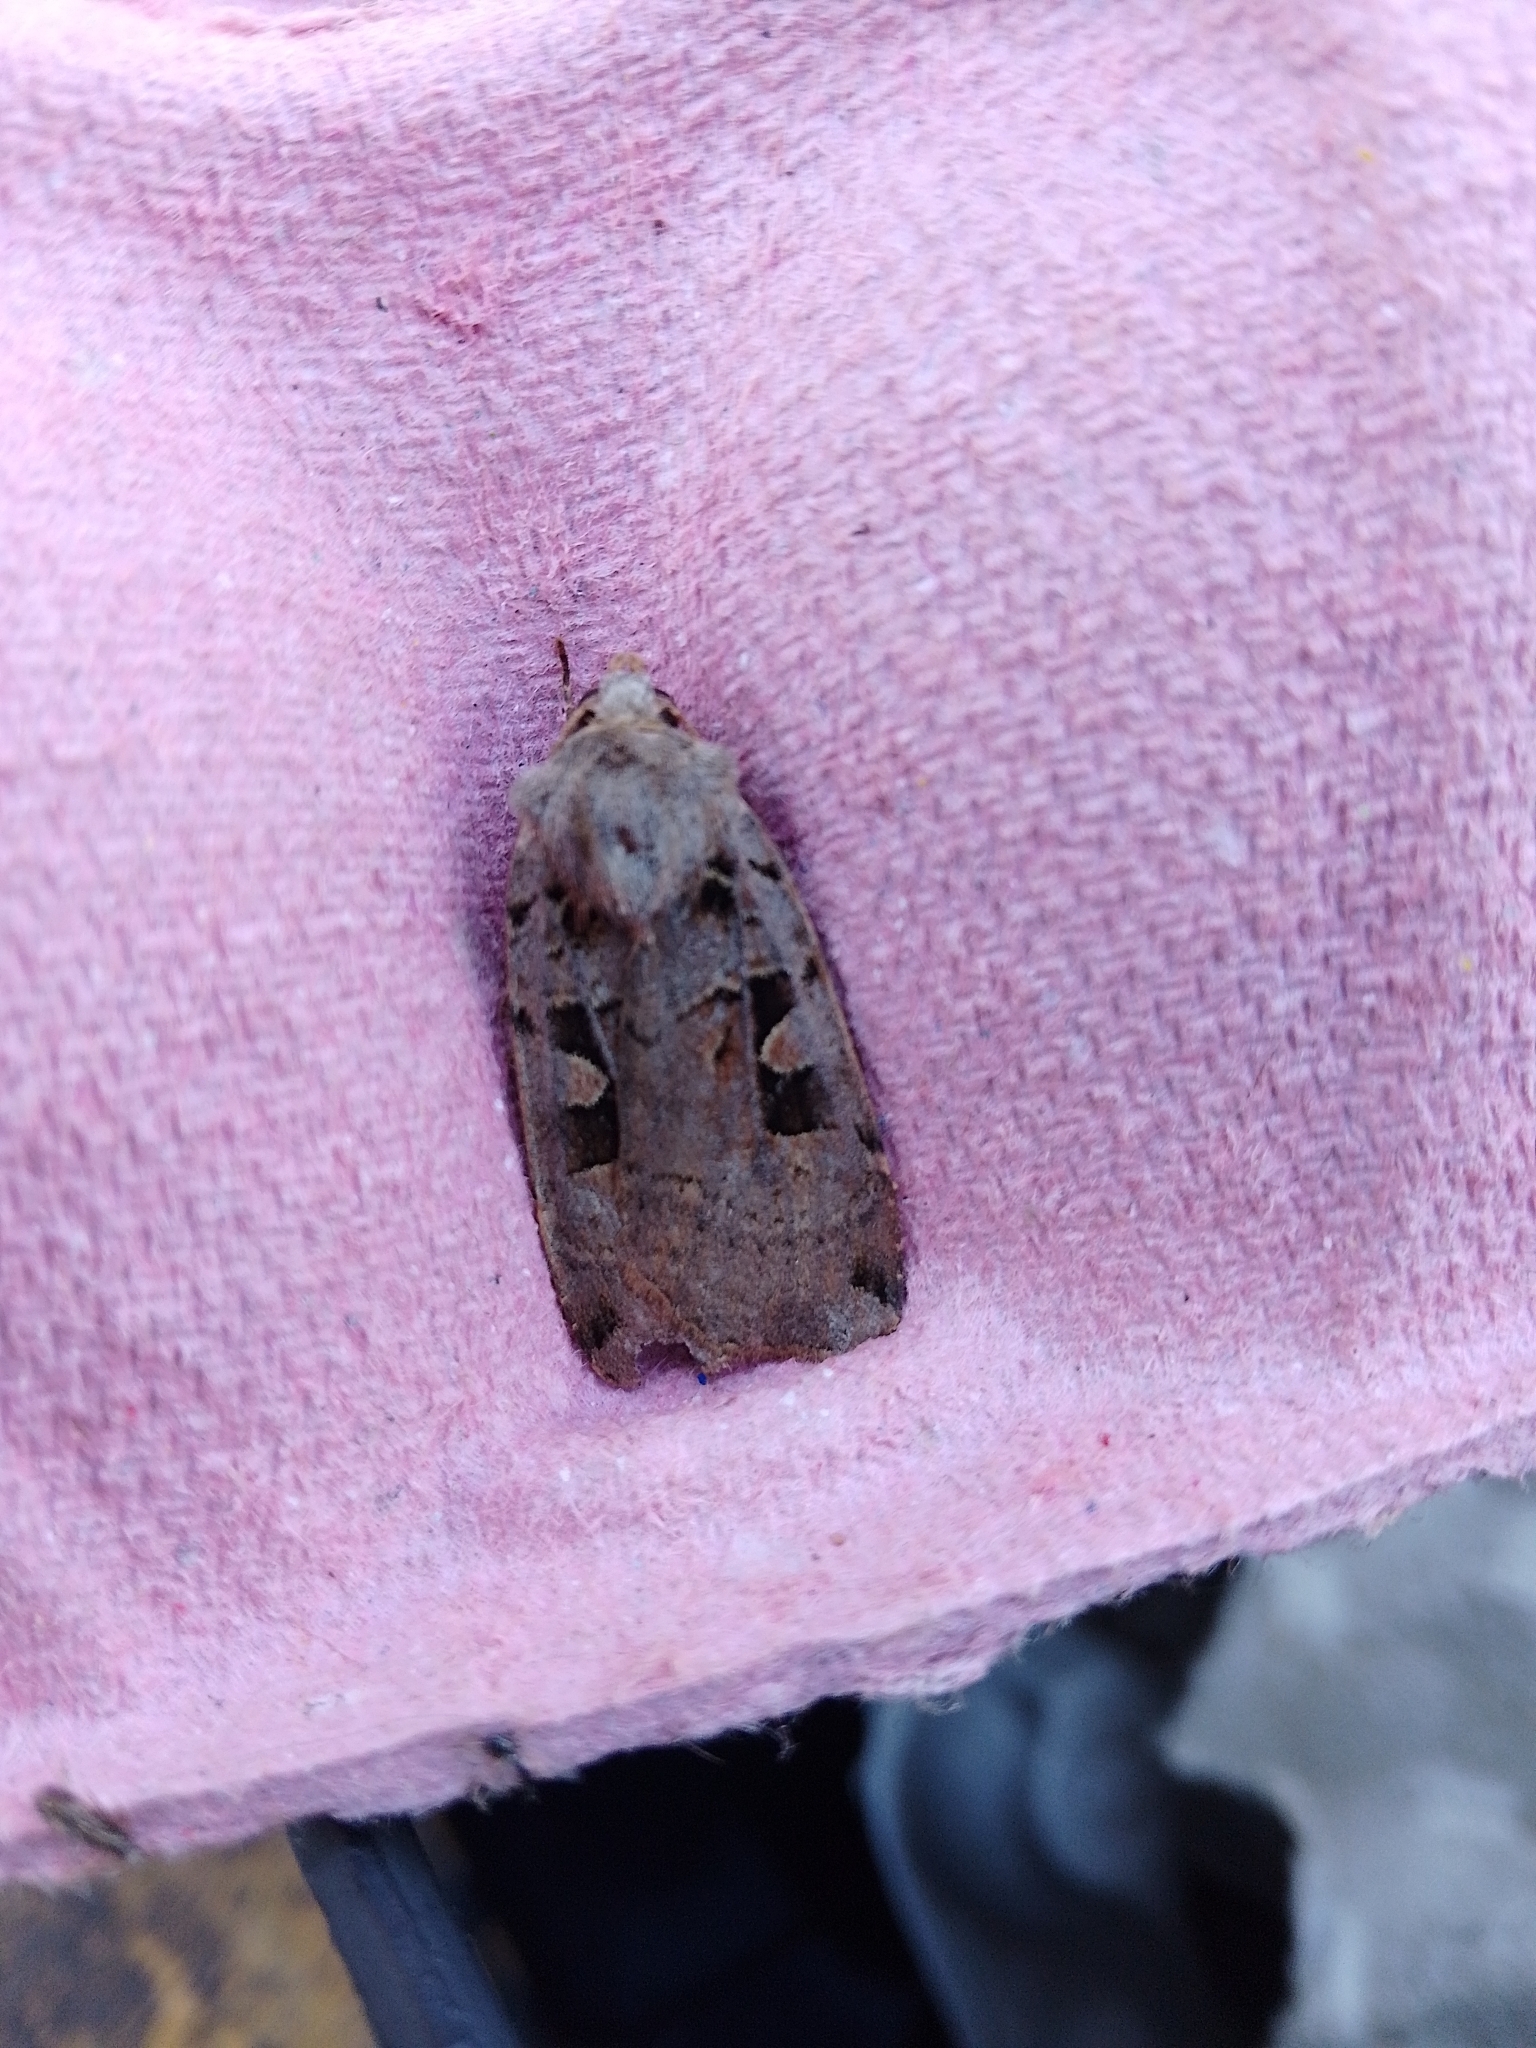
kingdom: Animalia
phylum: Arthropoda
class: Insecta
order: Lepidoptera
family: Noctuidae
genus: Xestia
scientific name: Xestia triangulum
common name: Double square-spot
